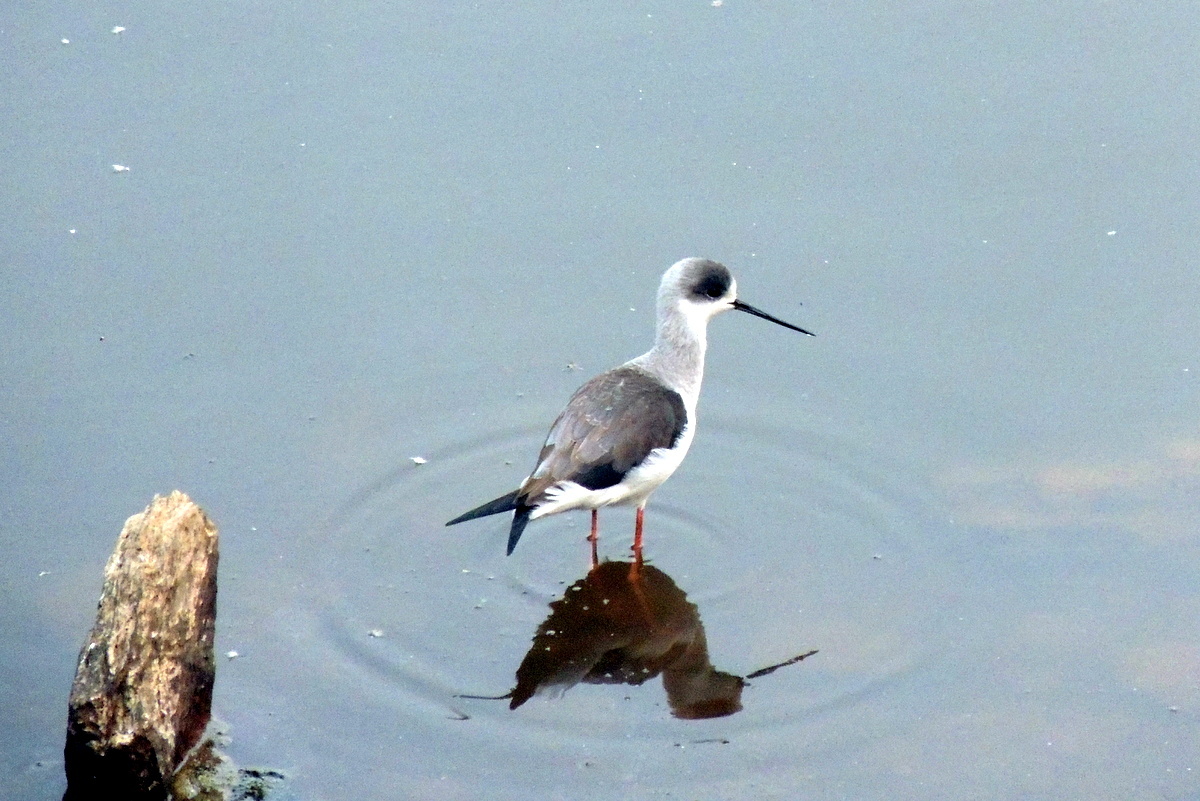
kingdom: Animalia
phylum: Chordata
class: Aves
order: Charadriiformes
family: Recurvirostridae
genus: Himantopus
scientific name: Himantopus himantopus
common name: Black-winged stilt
